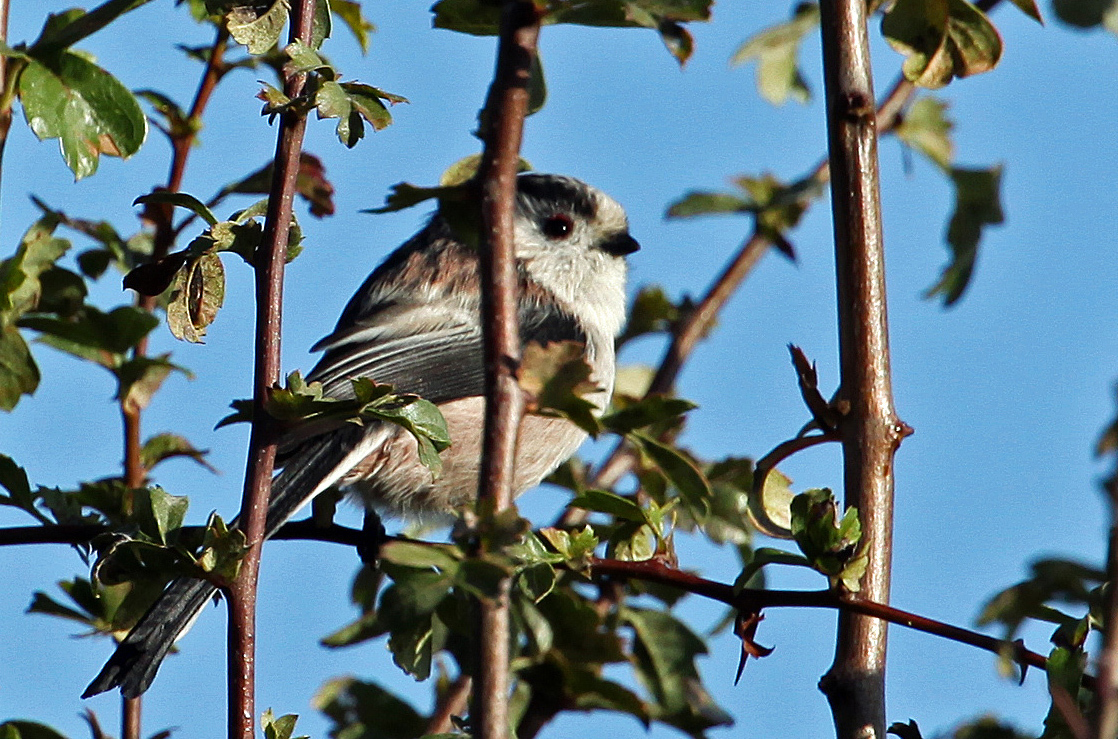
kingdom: Animalia
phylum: Chordata
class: Aves
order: Passeriformes
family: Aegithalidae
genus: Aegithalos
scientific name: Aegithalos caudatus
